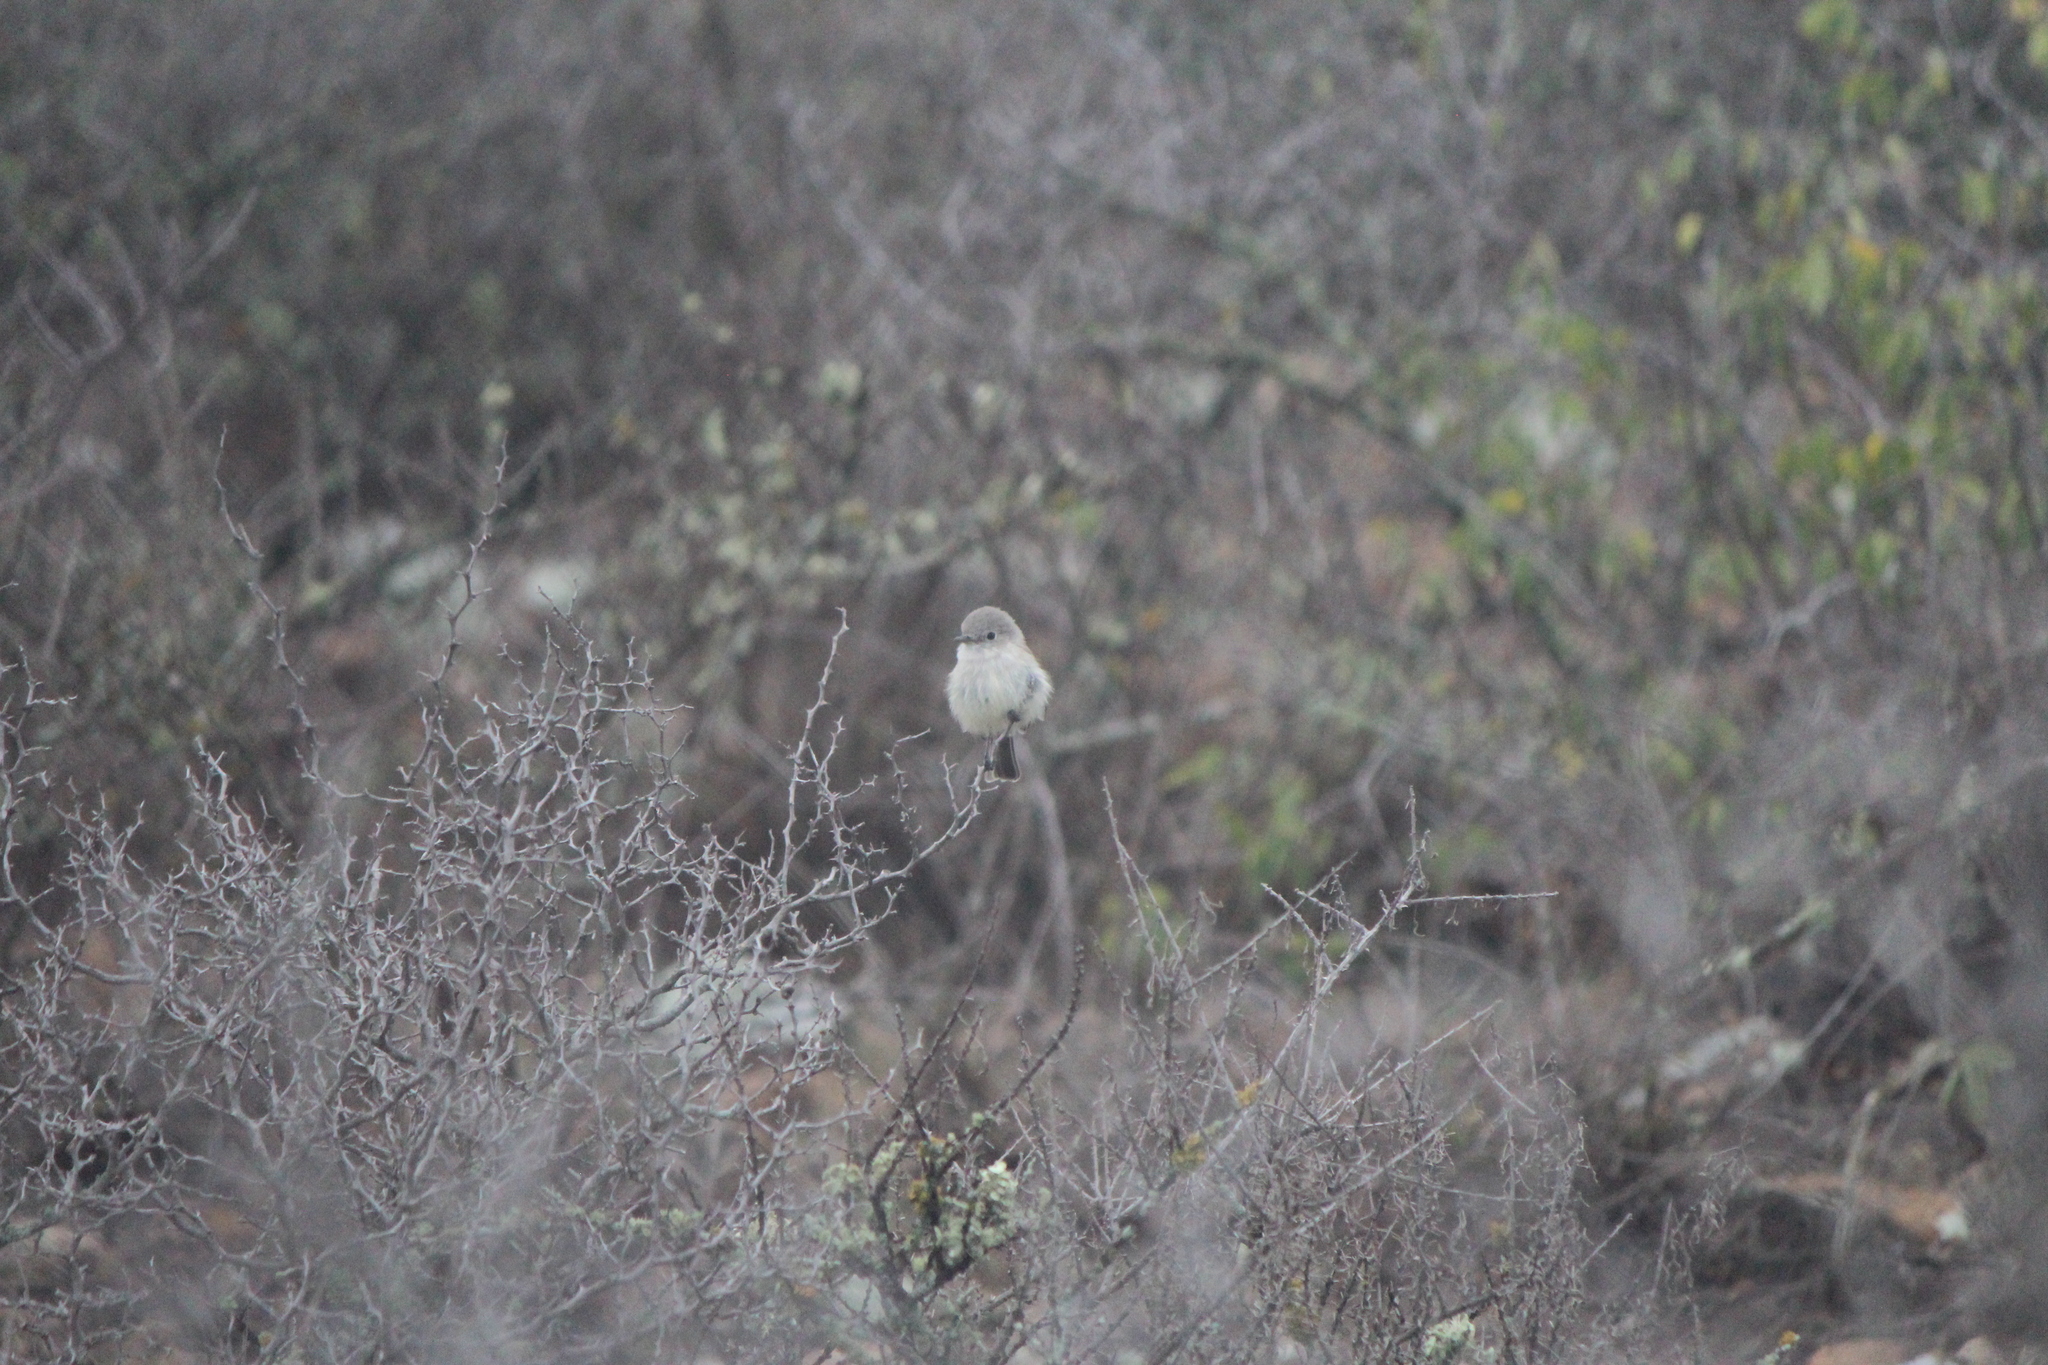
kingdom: Animalia
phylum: Chordata
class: Aves
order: Passeriformes
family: Tyrannidae
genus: Empidonax
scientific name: Empidonax wrightii
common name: Gray flycatcher
